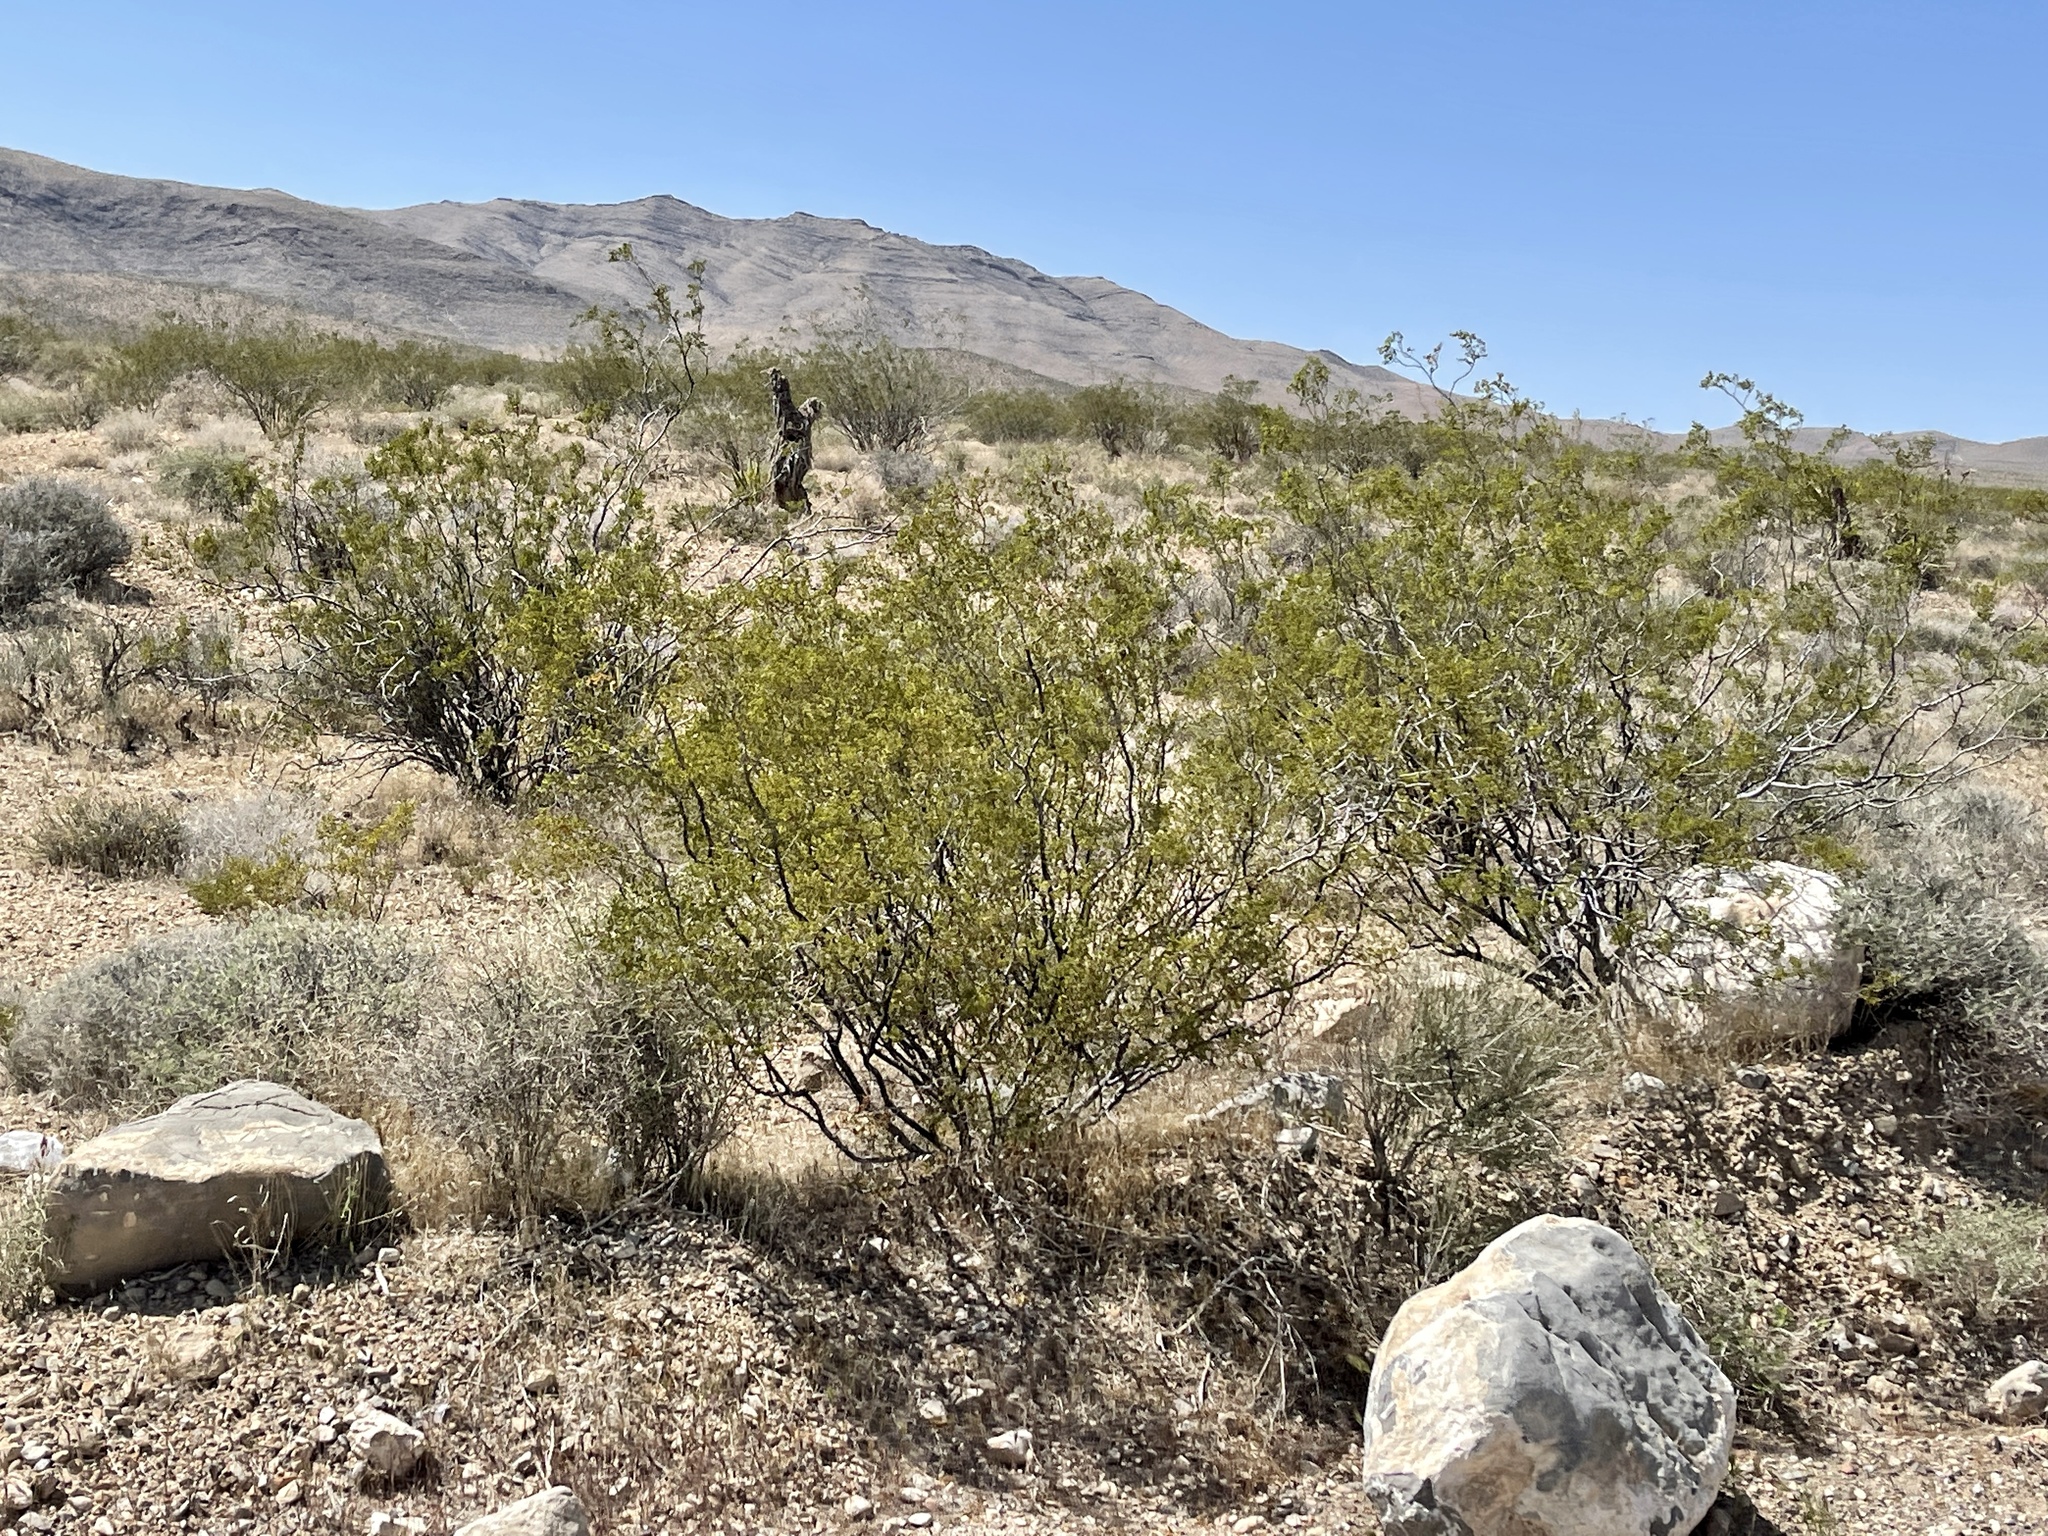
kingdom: Plantae
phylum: Tracheophyta
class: Magnoliopsida
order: Zygophyllales
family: Zygophyllaceae
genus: Larrea
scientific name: Larrea tridentata
